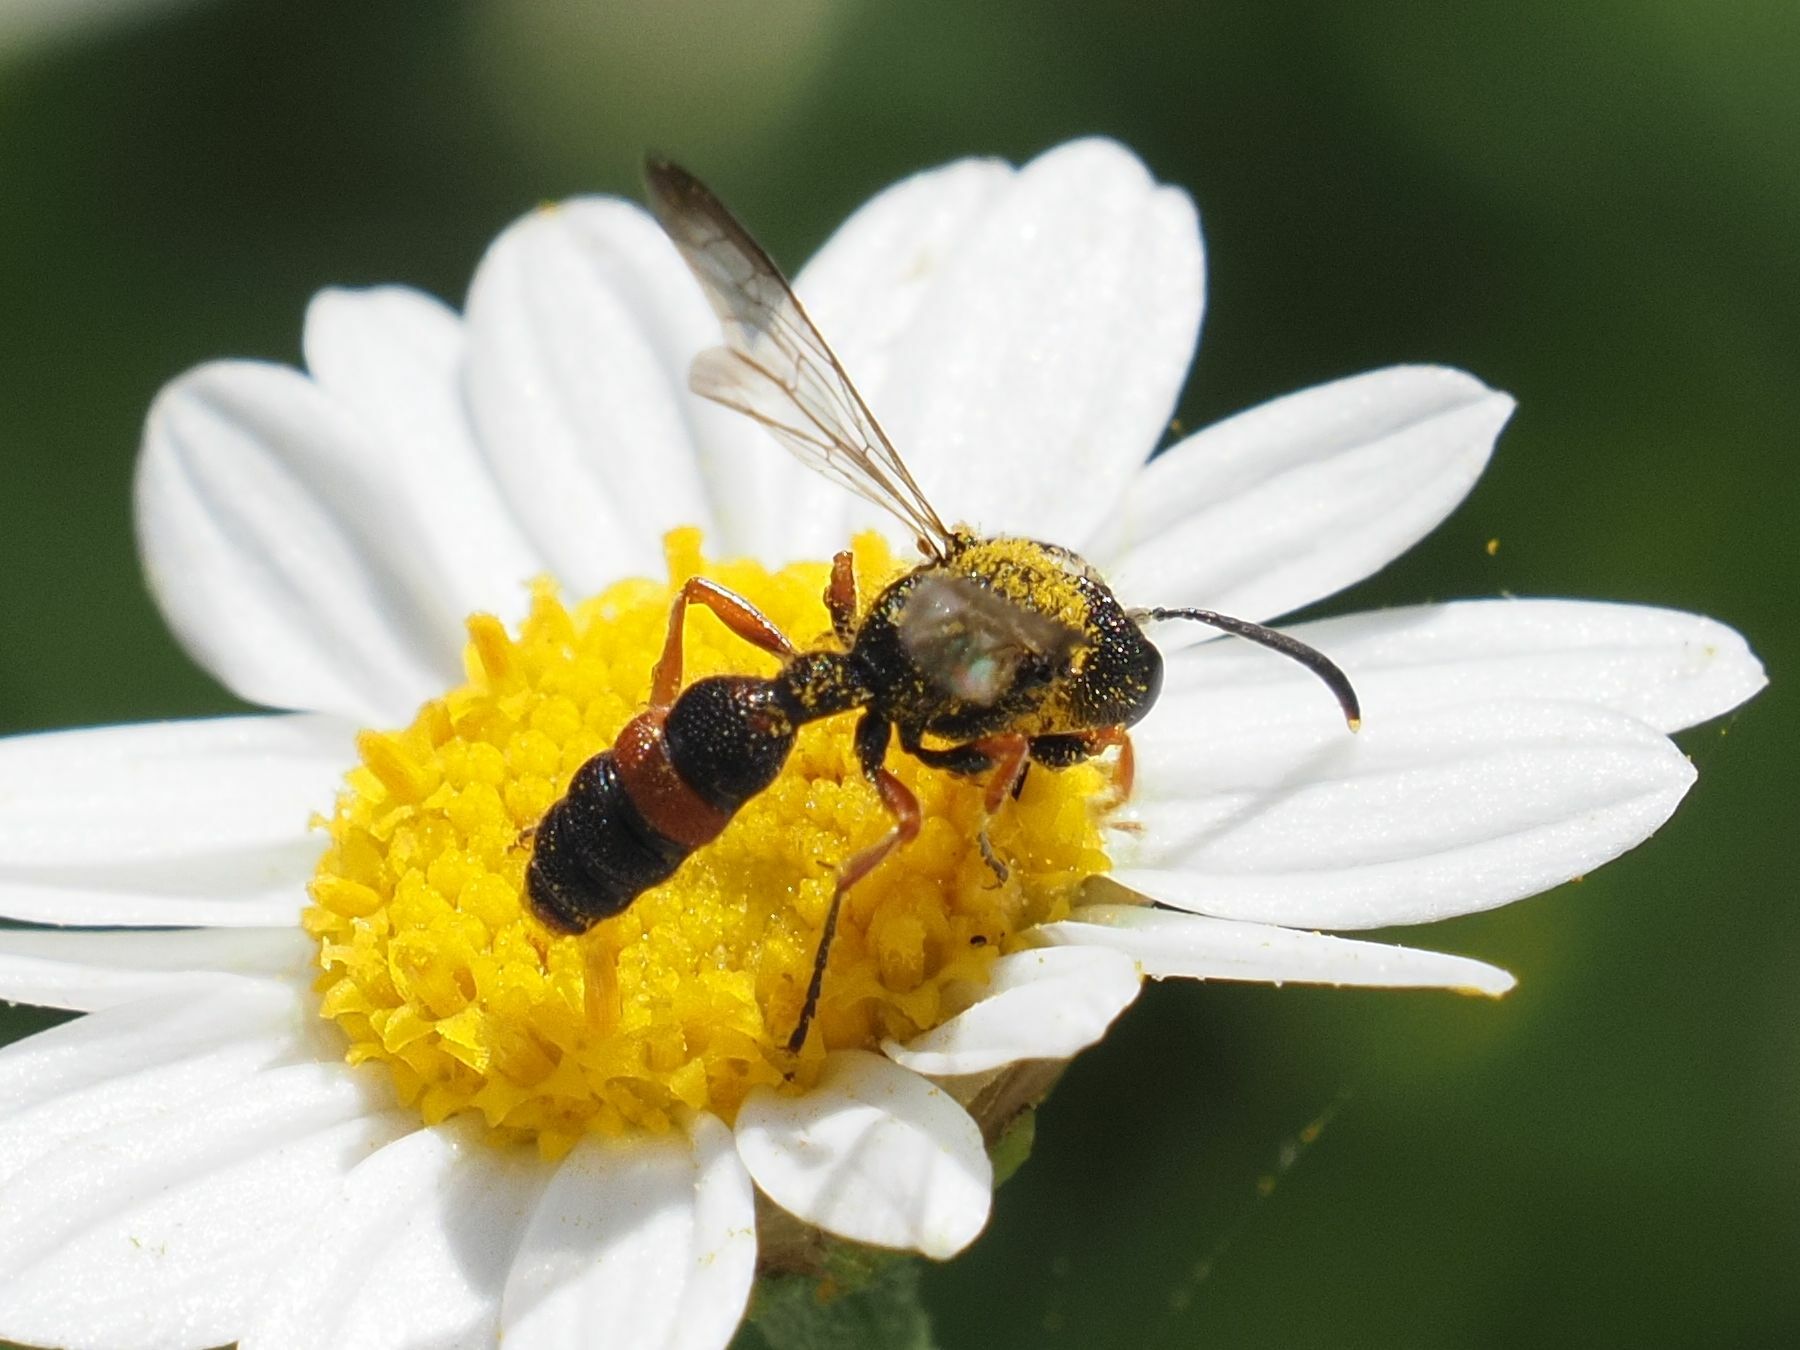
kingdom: Animalia
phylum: Arthropoda
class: Insecta
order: Hymenoptera
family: Crabronidae
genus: Cerceris
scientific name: Cerceris concinna
